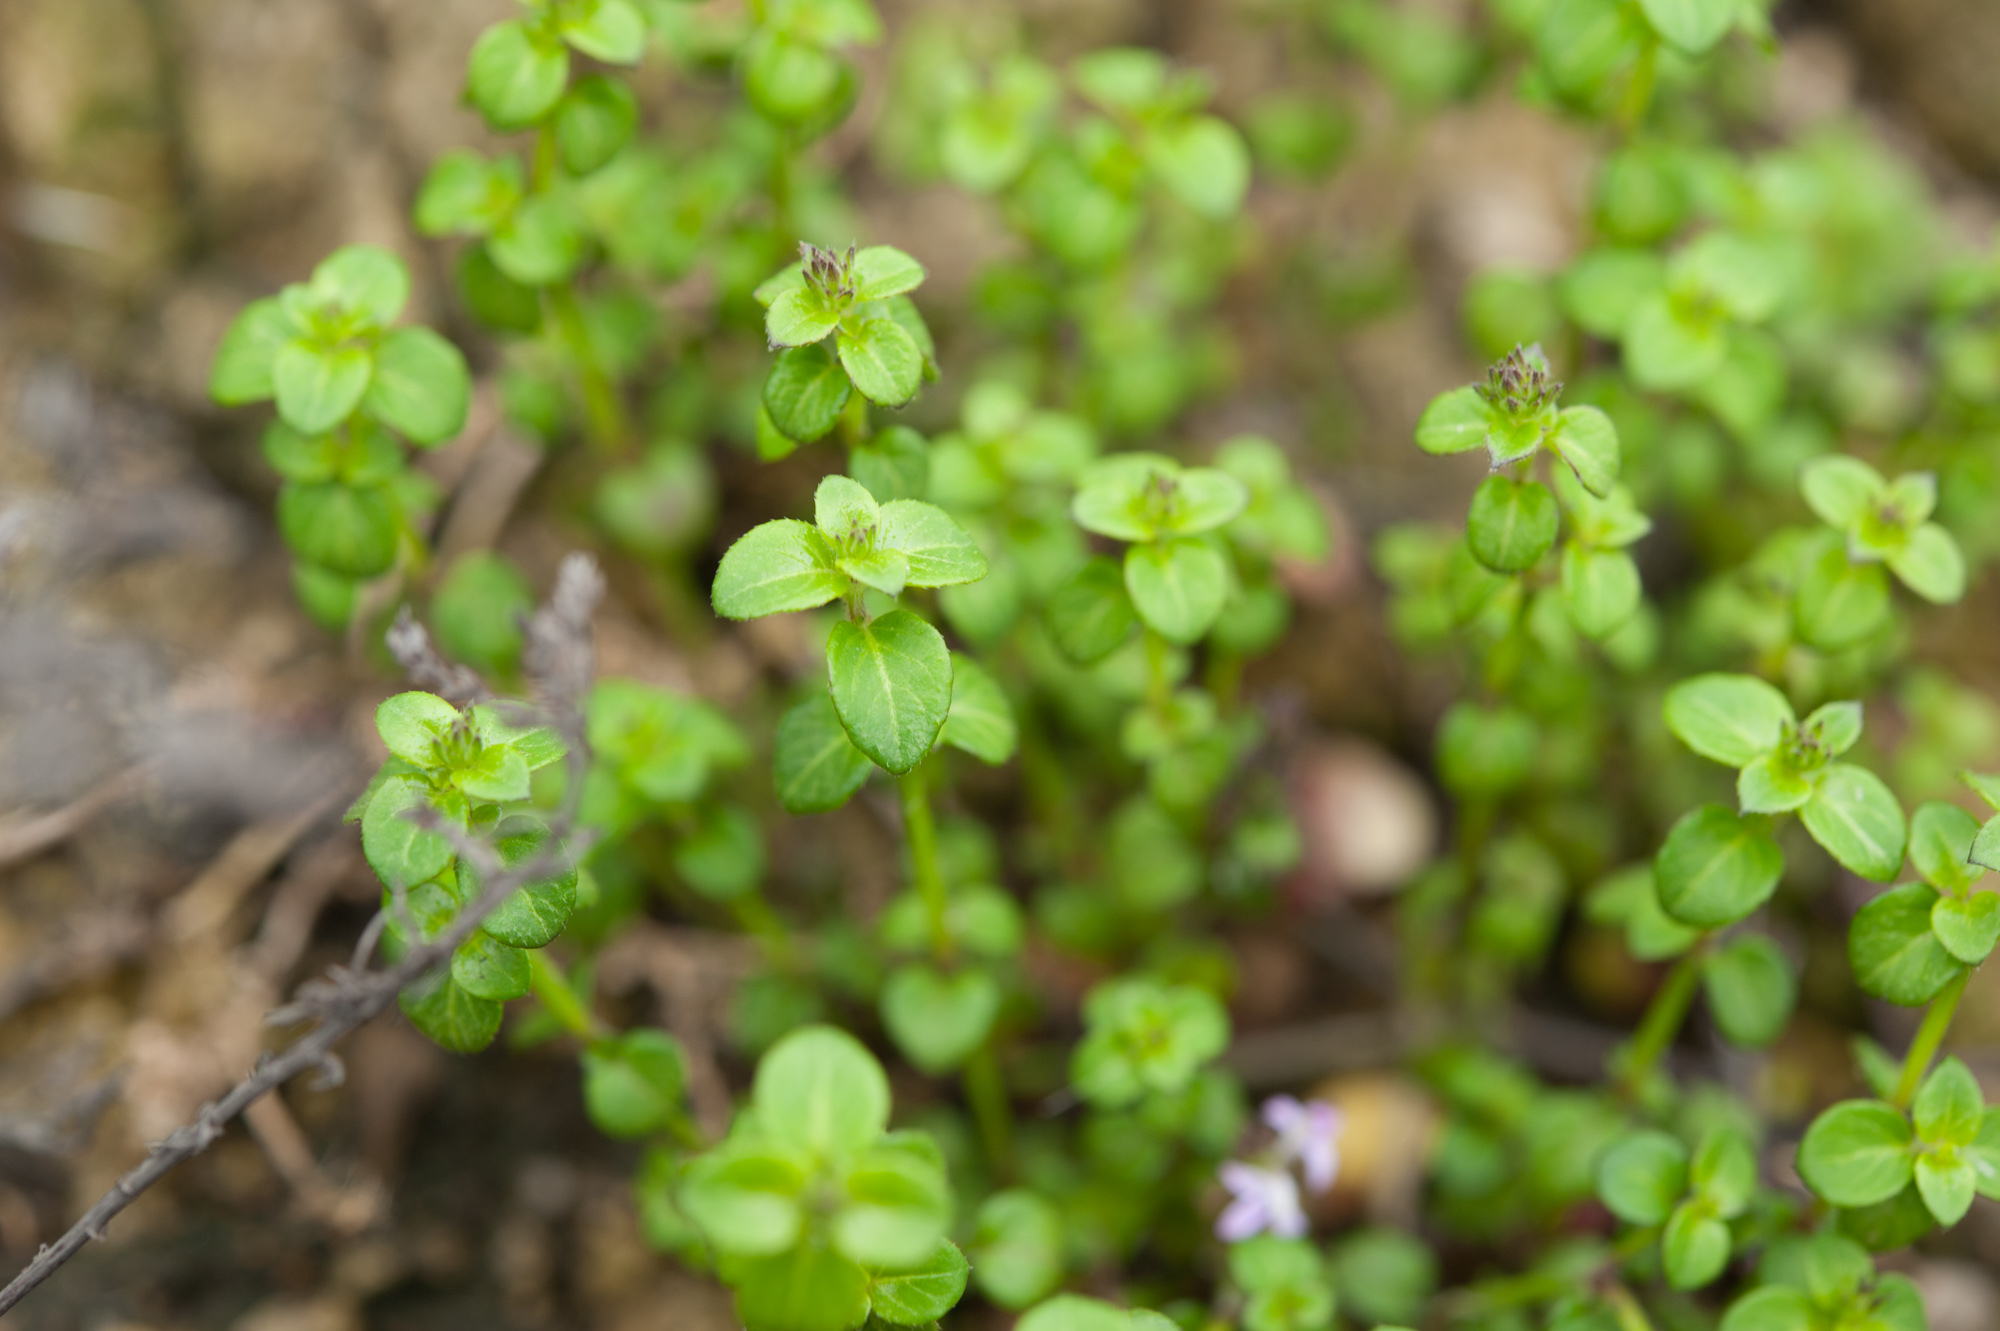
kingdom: Plantae
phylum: Tracheophyta
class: Magnoliopsida
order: Lamiales
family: Acanthaceae
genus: Rostellularia
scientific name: Rostellularia hayatae
